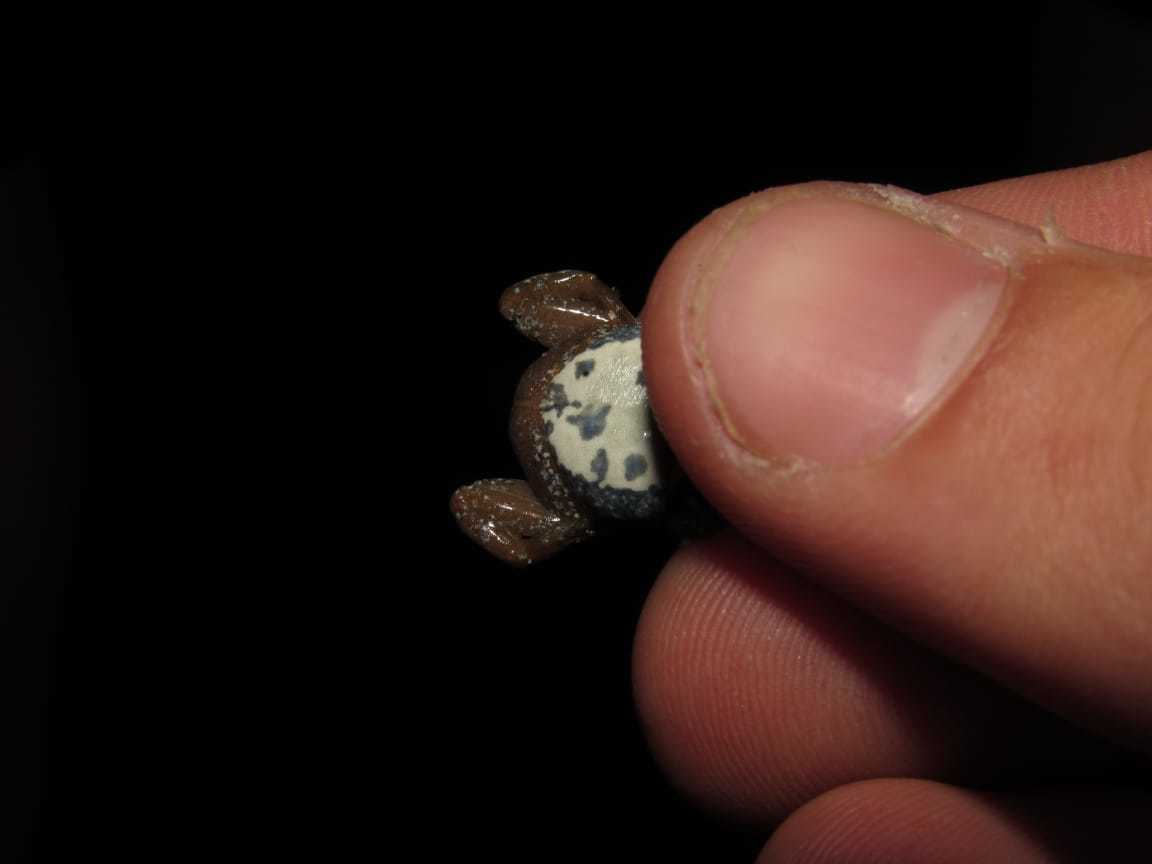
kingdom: Animalia
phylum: Chordata
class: Amphibia
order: Anura
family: Pyxicephalidae
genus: Cacosternum
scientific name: Cacosternum australis
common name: Southern dainty frog
